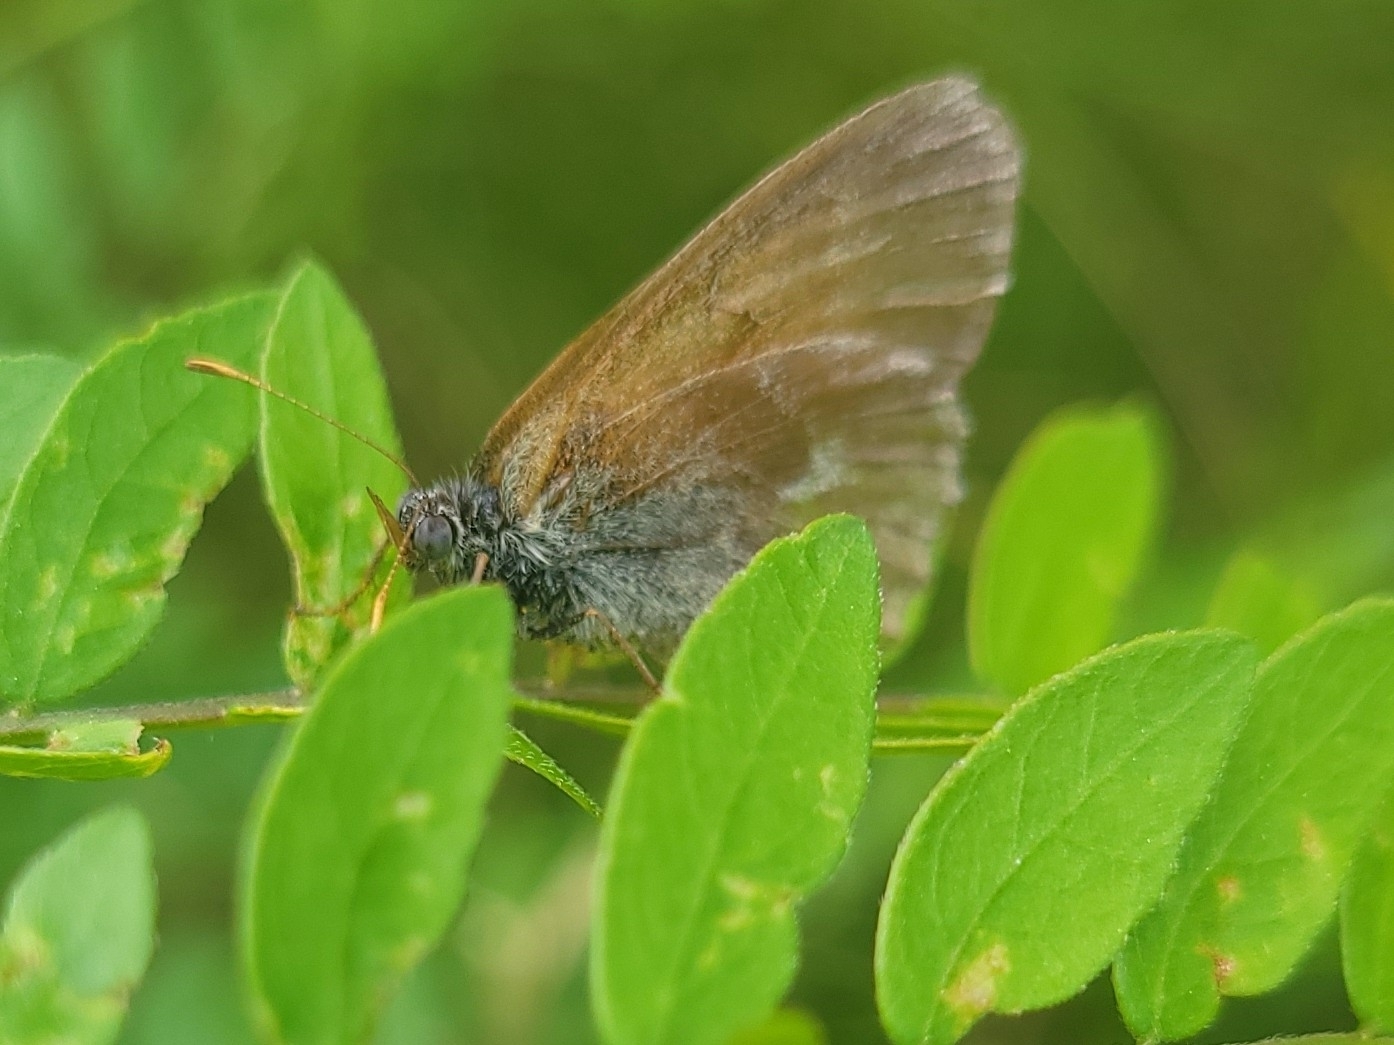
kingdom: Animalia
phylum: Arthropoda
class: Insecta
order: Lepidoptera
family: Nymphalidae
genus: Coenonympha
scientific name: Coenonympha california
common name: Common ringlet
